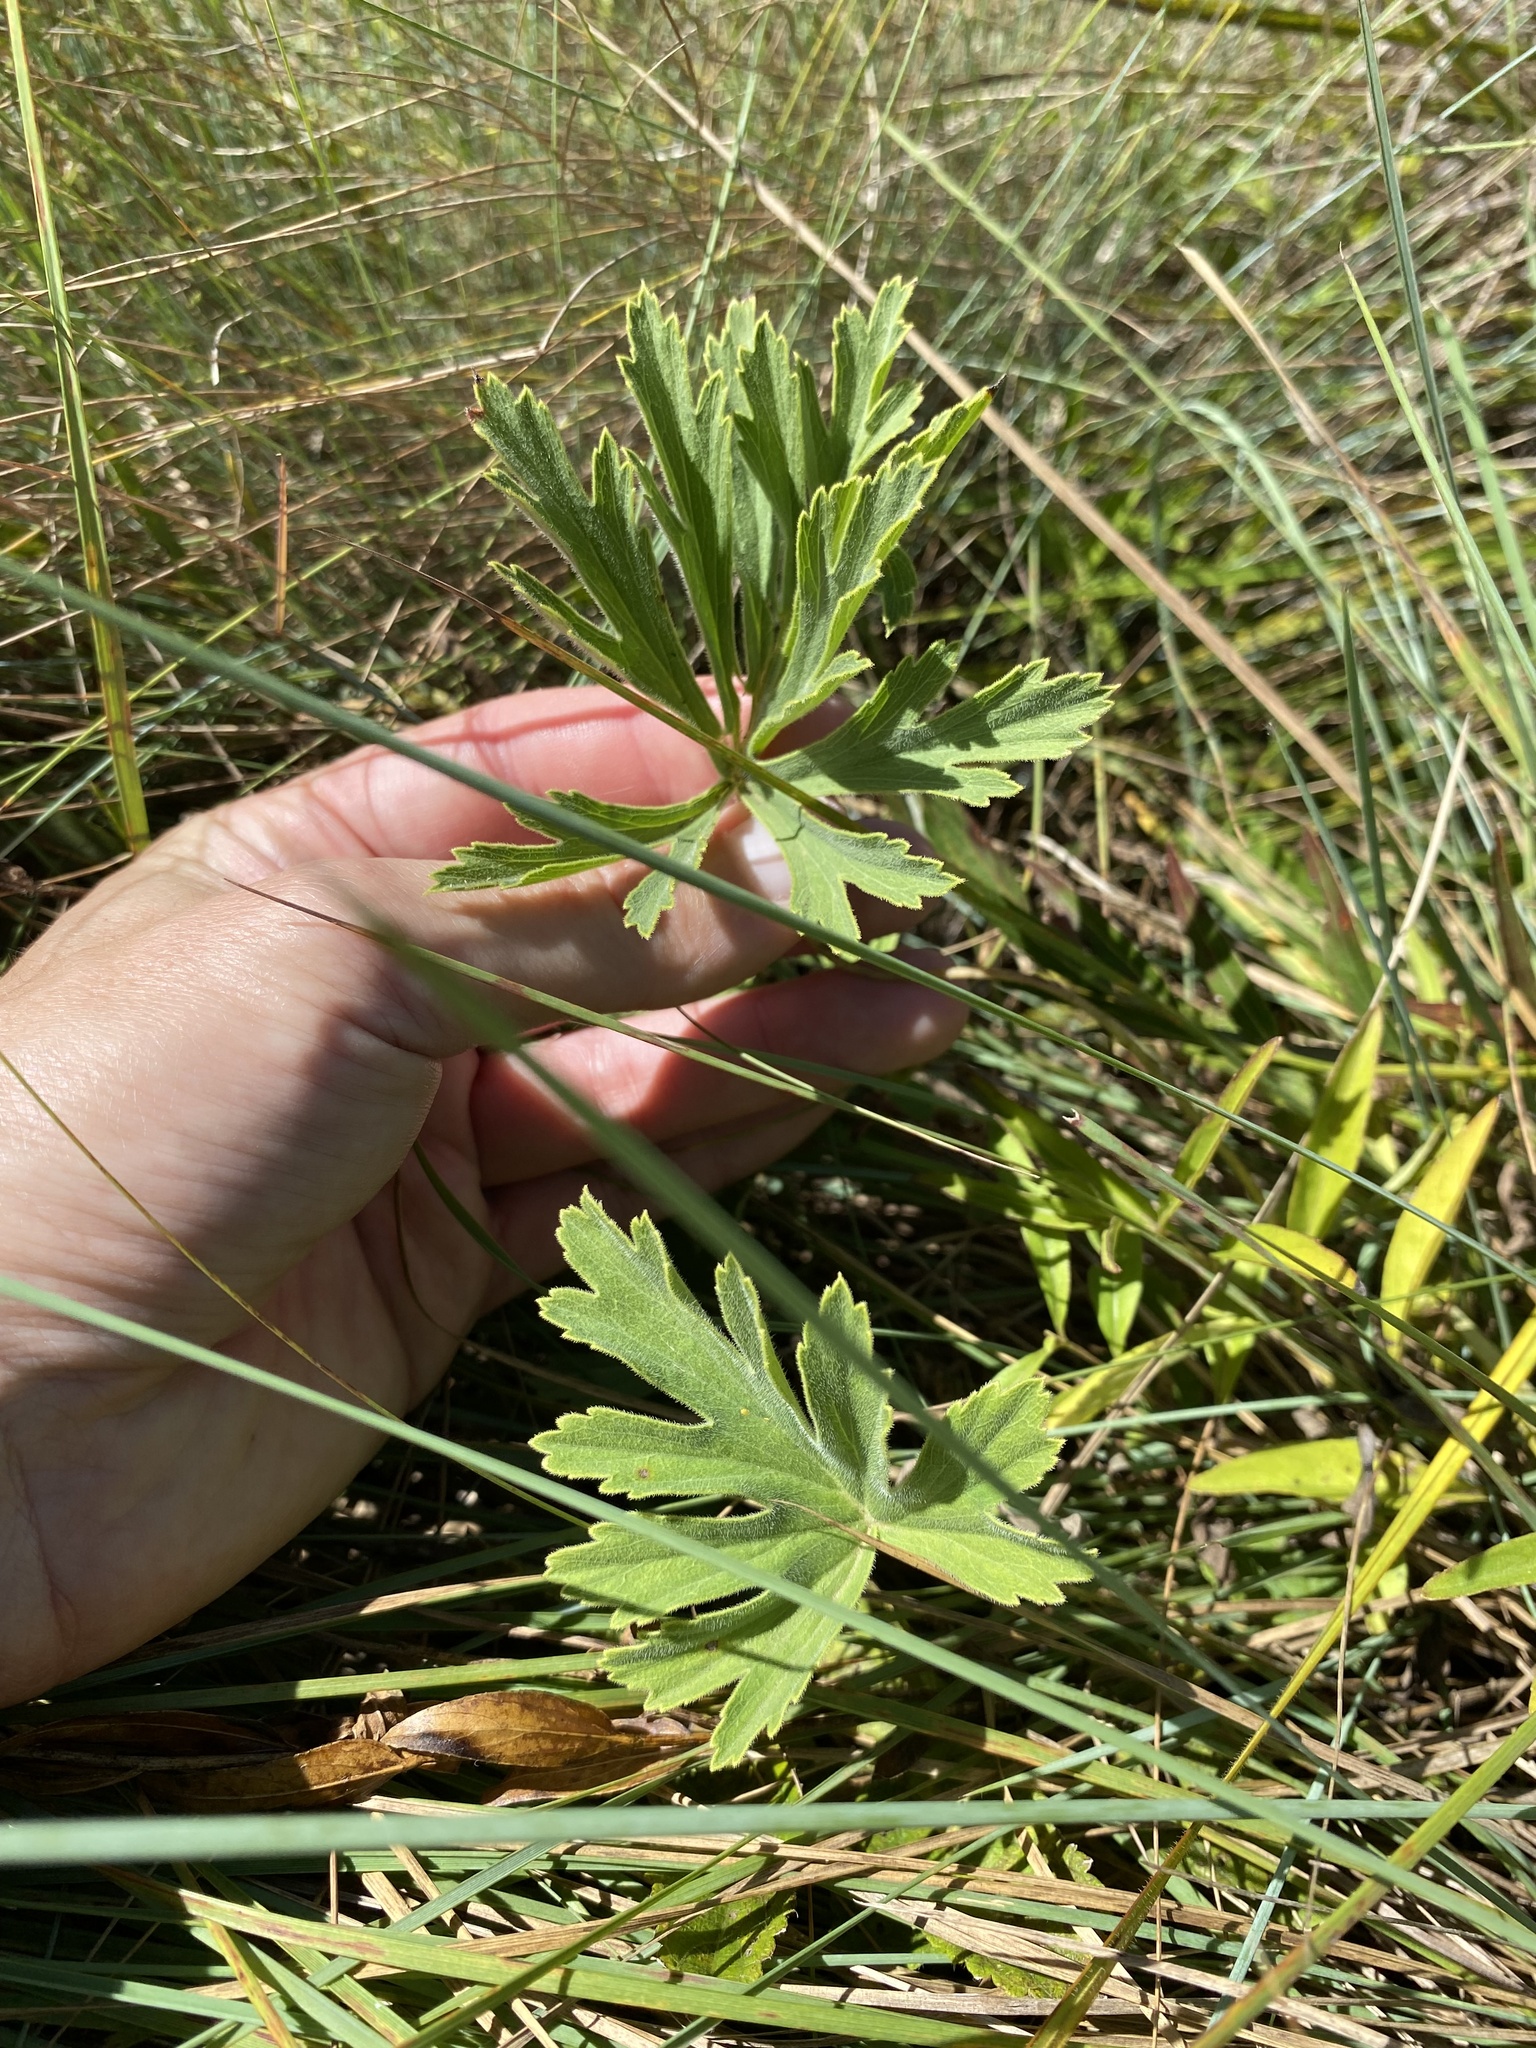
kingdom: Plantae
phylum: Tracheophyta
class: Magnoliopsida
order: Geraniales
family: Geraniaceae
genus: Pelargonium
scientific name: Pelargonium luridum
